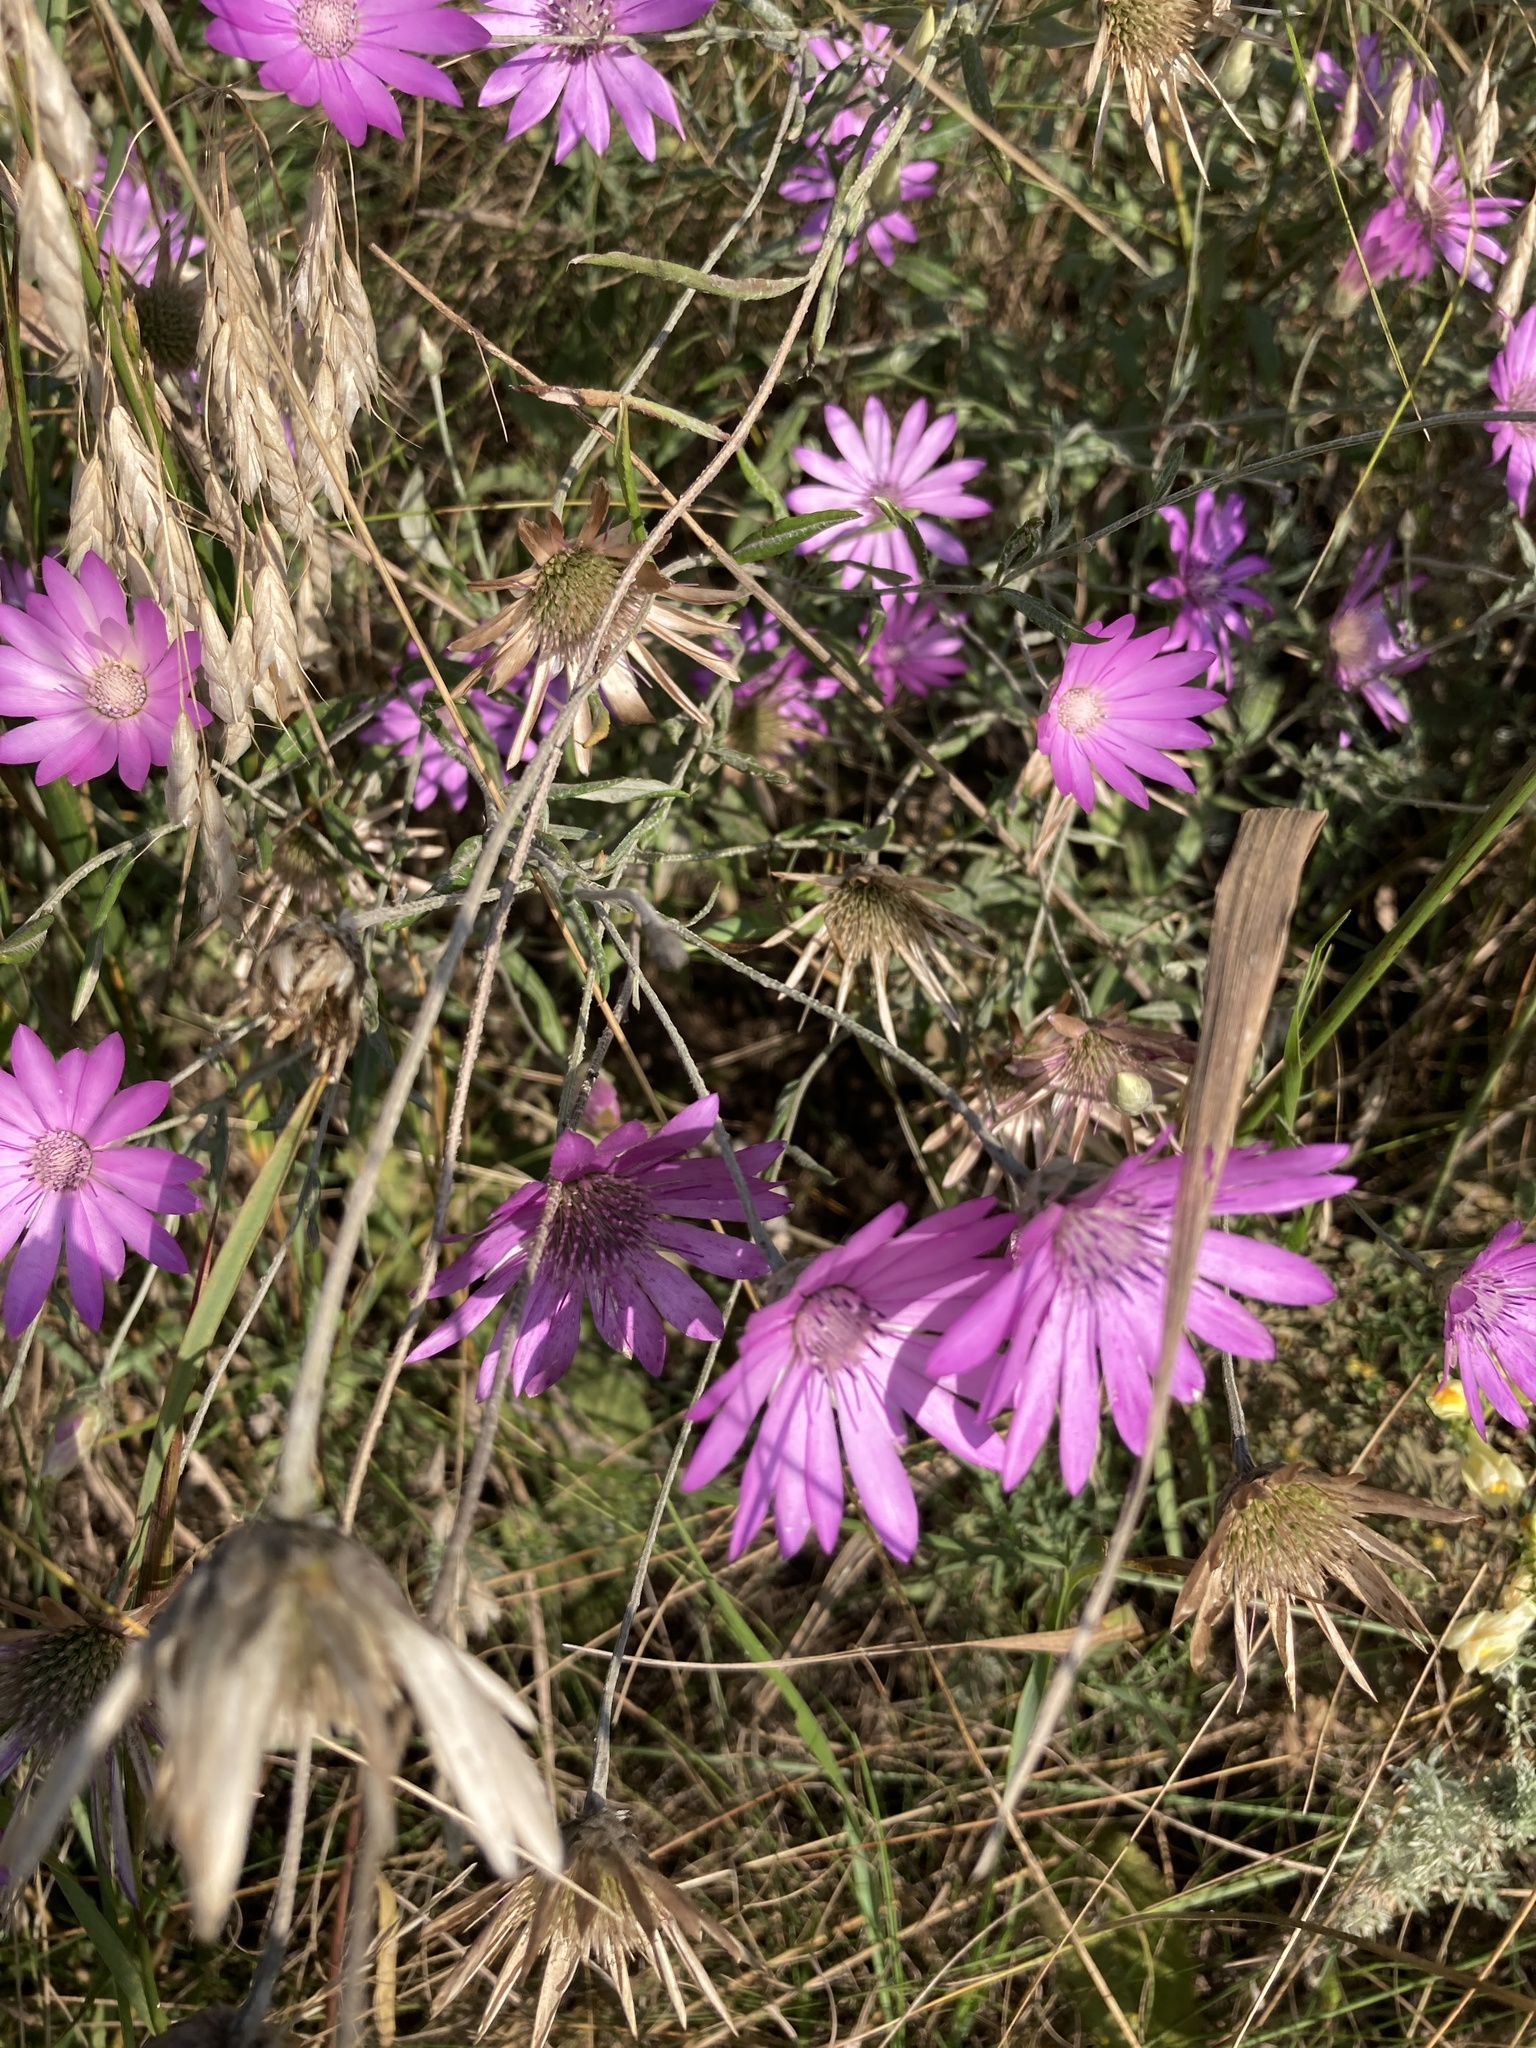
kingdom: Plantae
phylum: Tracheophyta
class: Magnoliopsida
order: Asterales
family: Asteraceae
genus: Xeranthemum
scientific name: Xeranthemum annuum
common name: Immortelle
